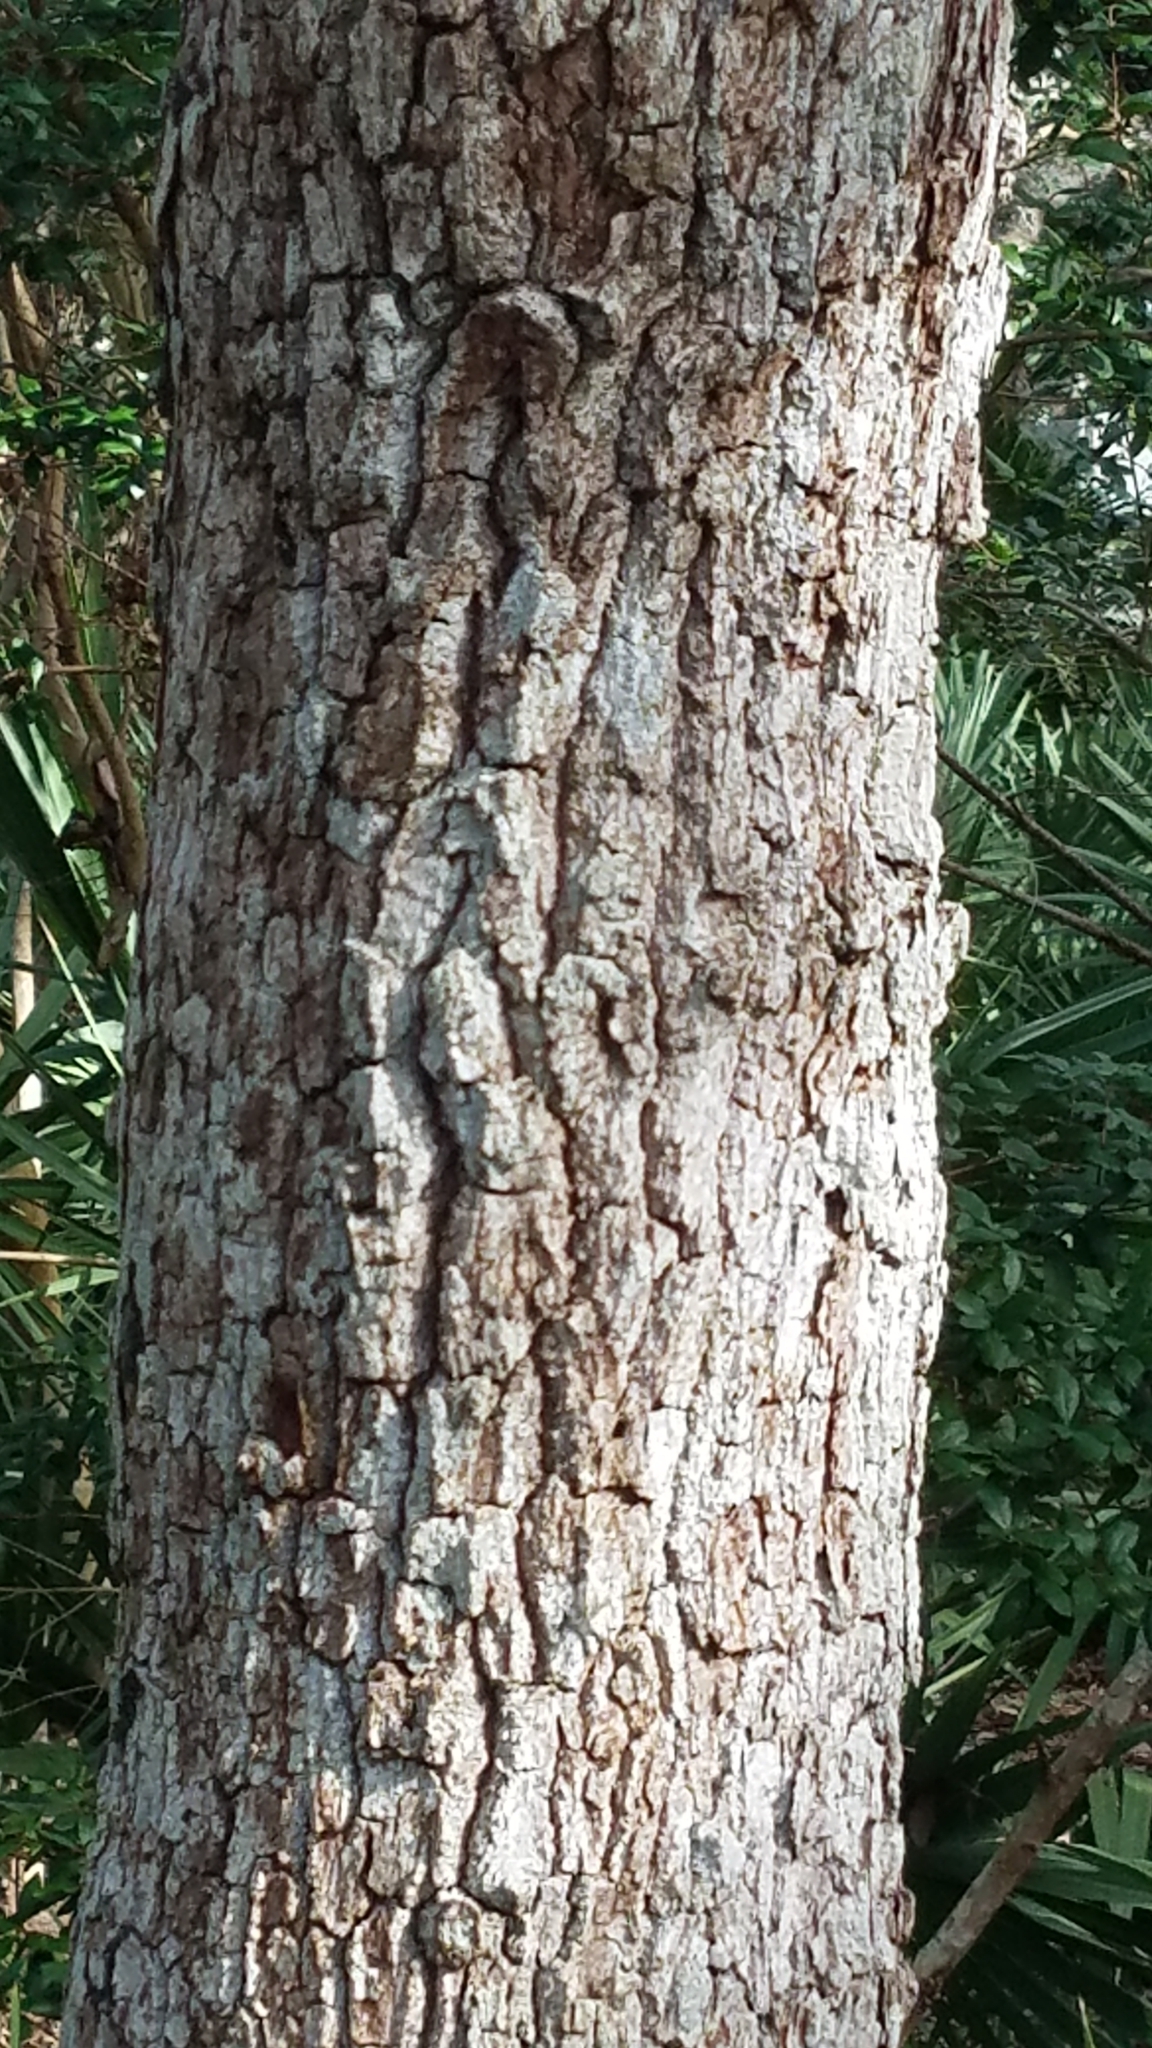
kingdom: Plantae
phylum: Tracheophyta
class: Magnoliopsida
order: Fagales
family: Fagaceae
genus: Quercus
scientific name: Quercus virginiana
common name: Southern live oak
